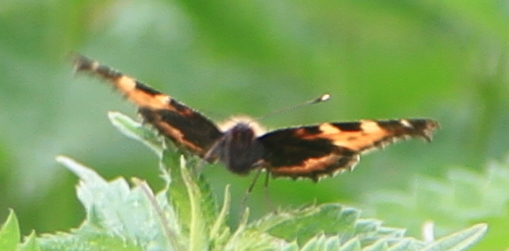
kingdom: Animalia
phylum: Arthropoda
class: Insecta
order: Lepidoptera
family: Nymphalidae
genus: Aglais
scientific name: Aglais urticae
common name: Small tortoiseshell
